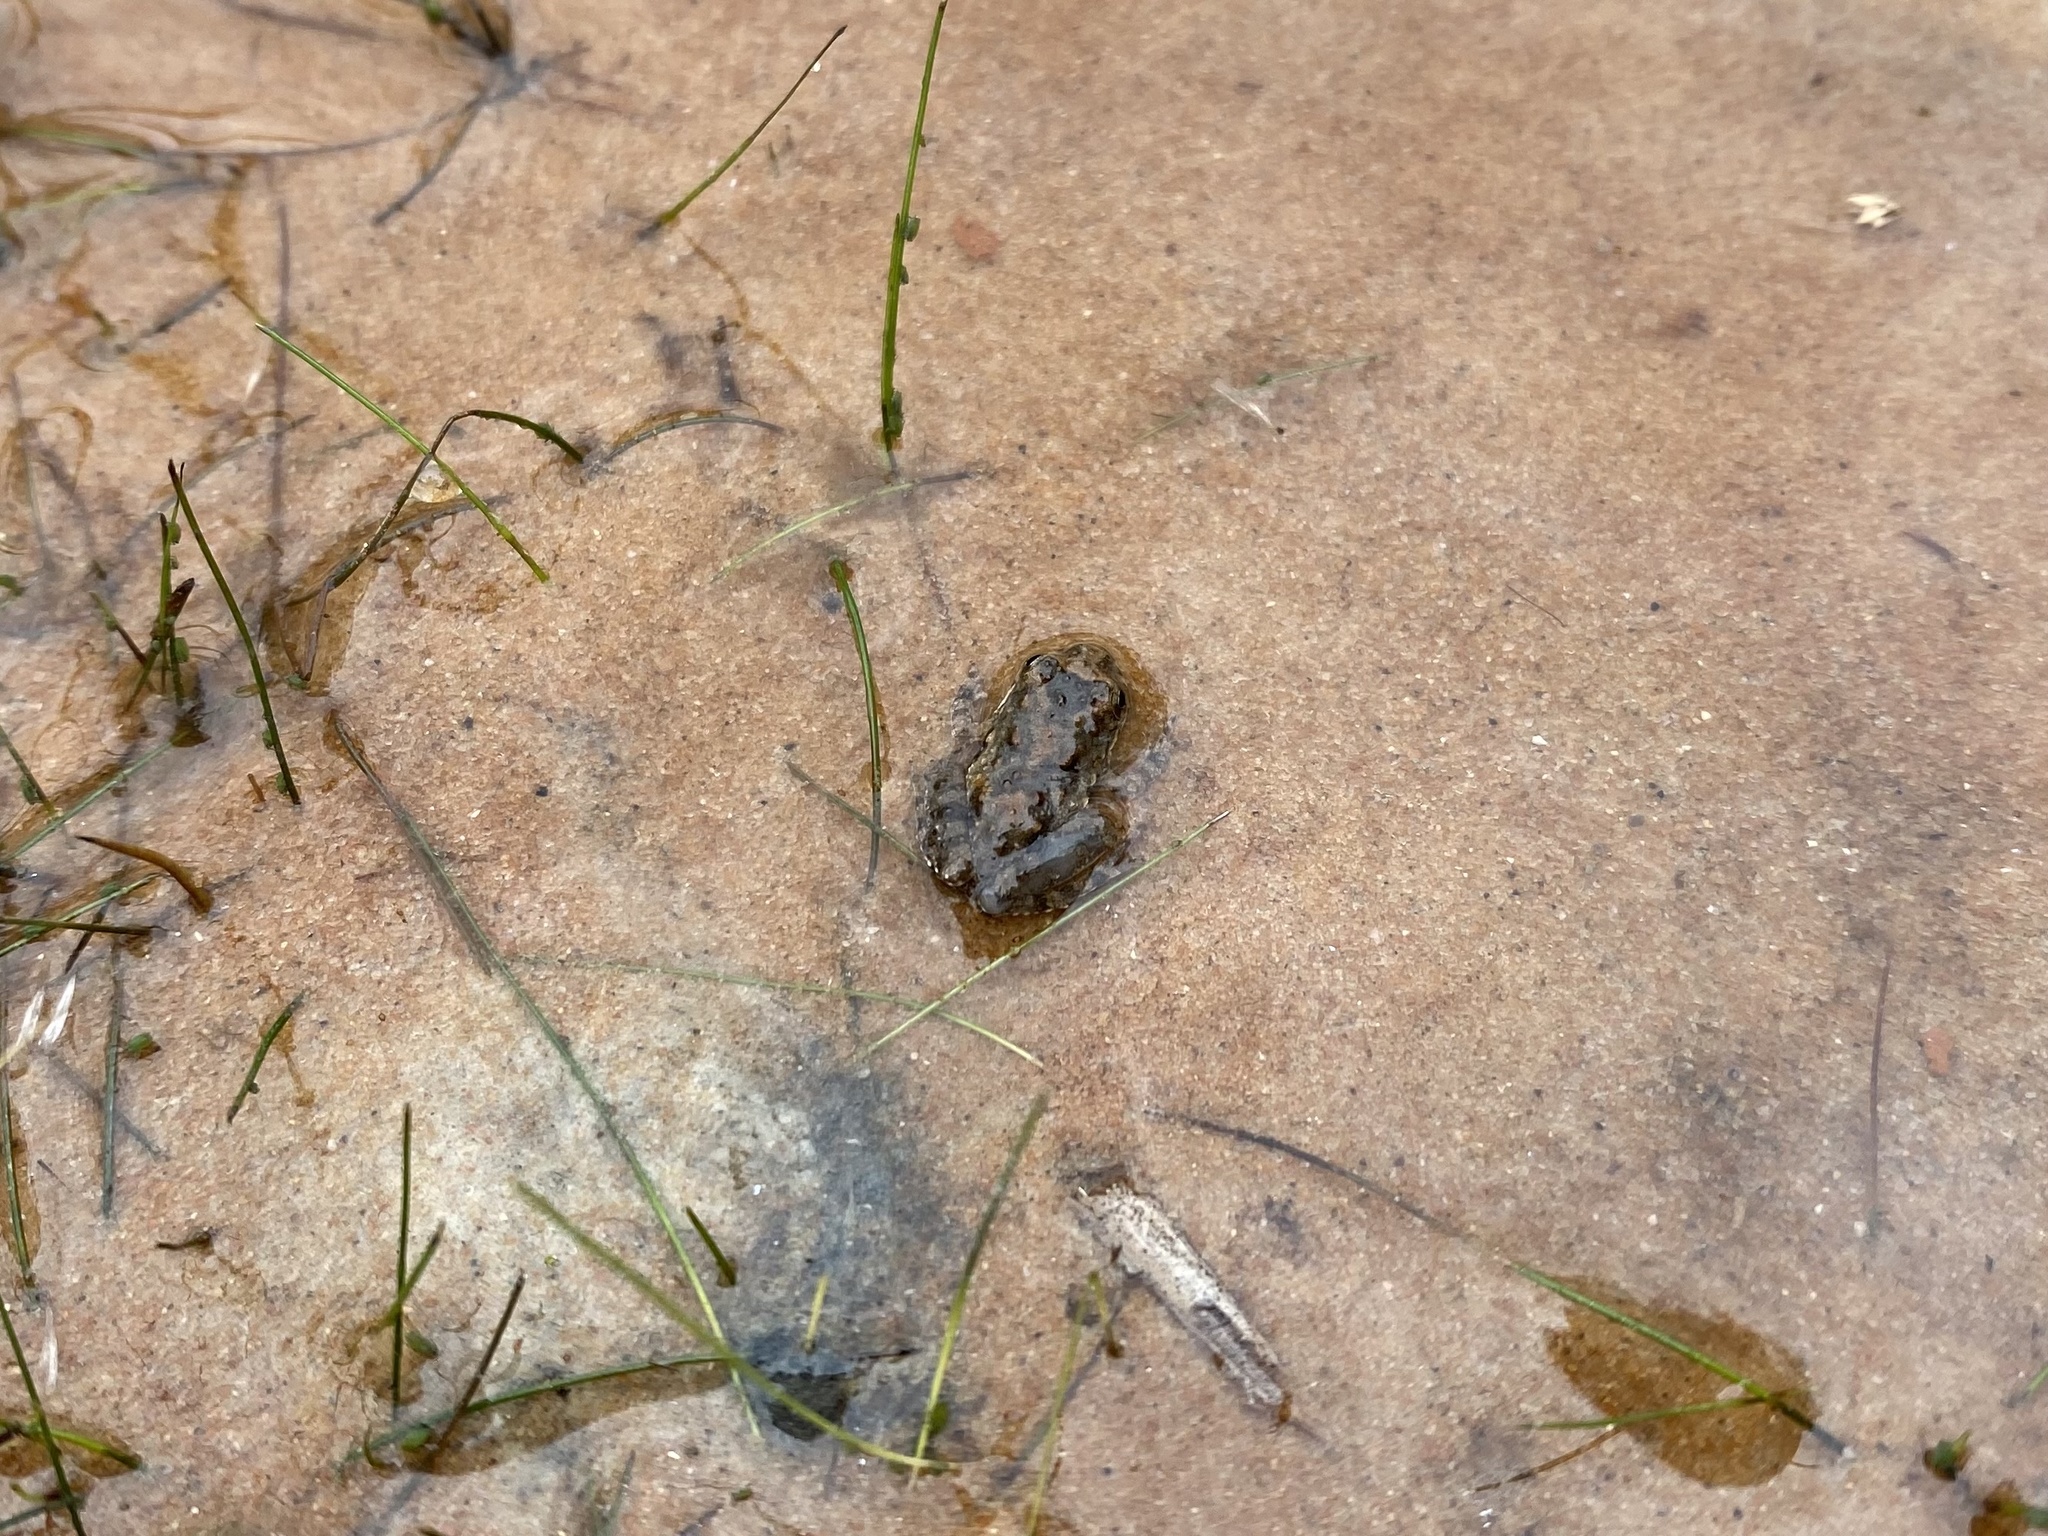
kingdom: Animalia
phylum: Chordata
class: Amphibia
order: Anura
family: Hylidae
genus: Acris
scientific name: Acris blanchardi
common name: Blanchard's cricket frog
